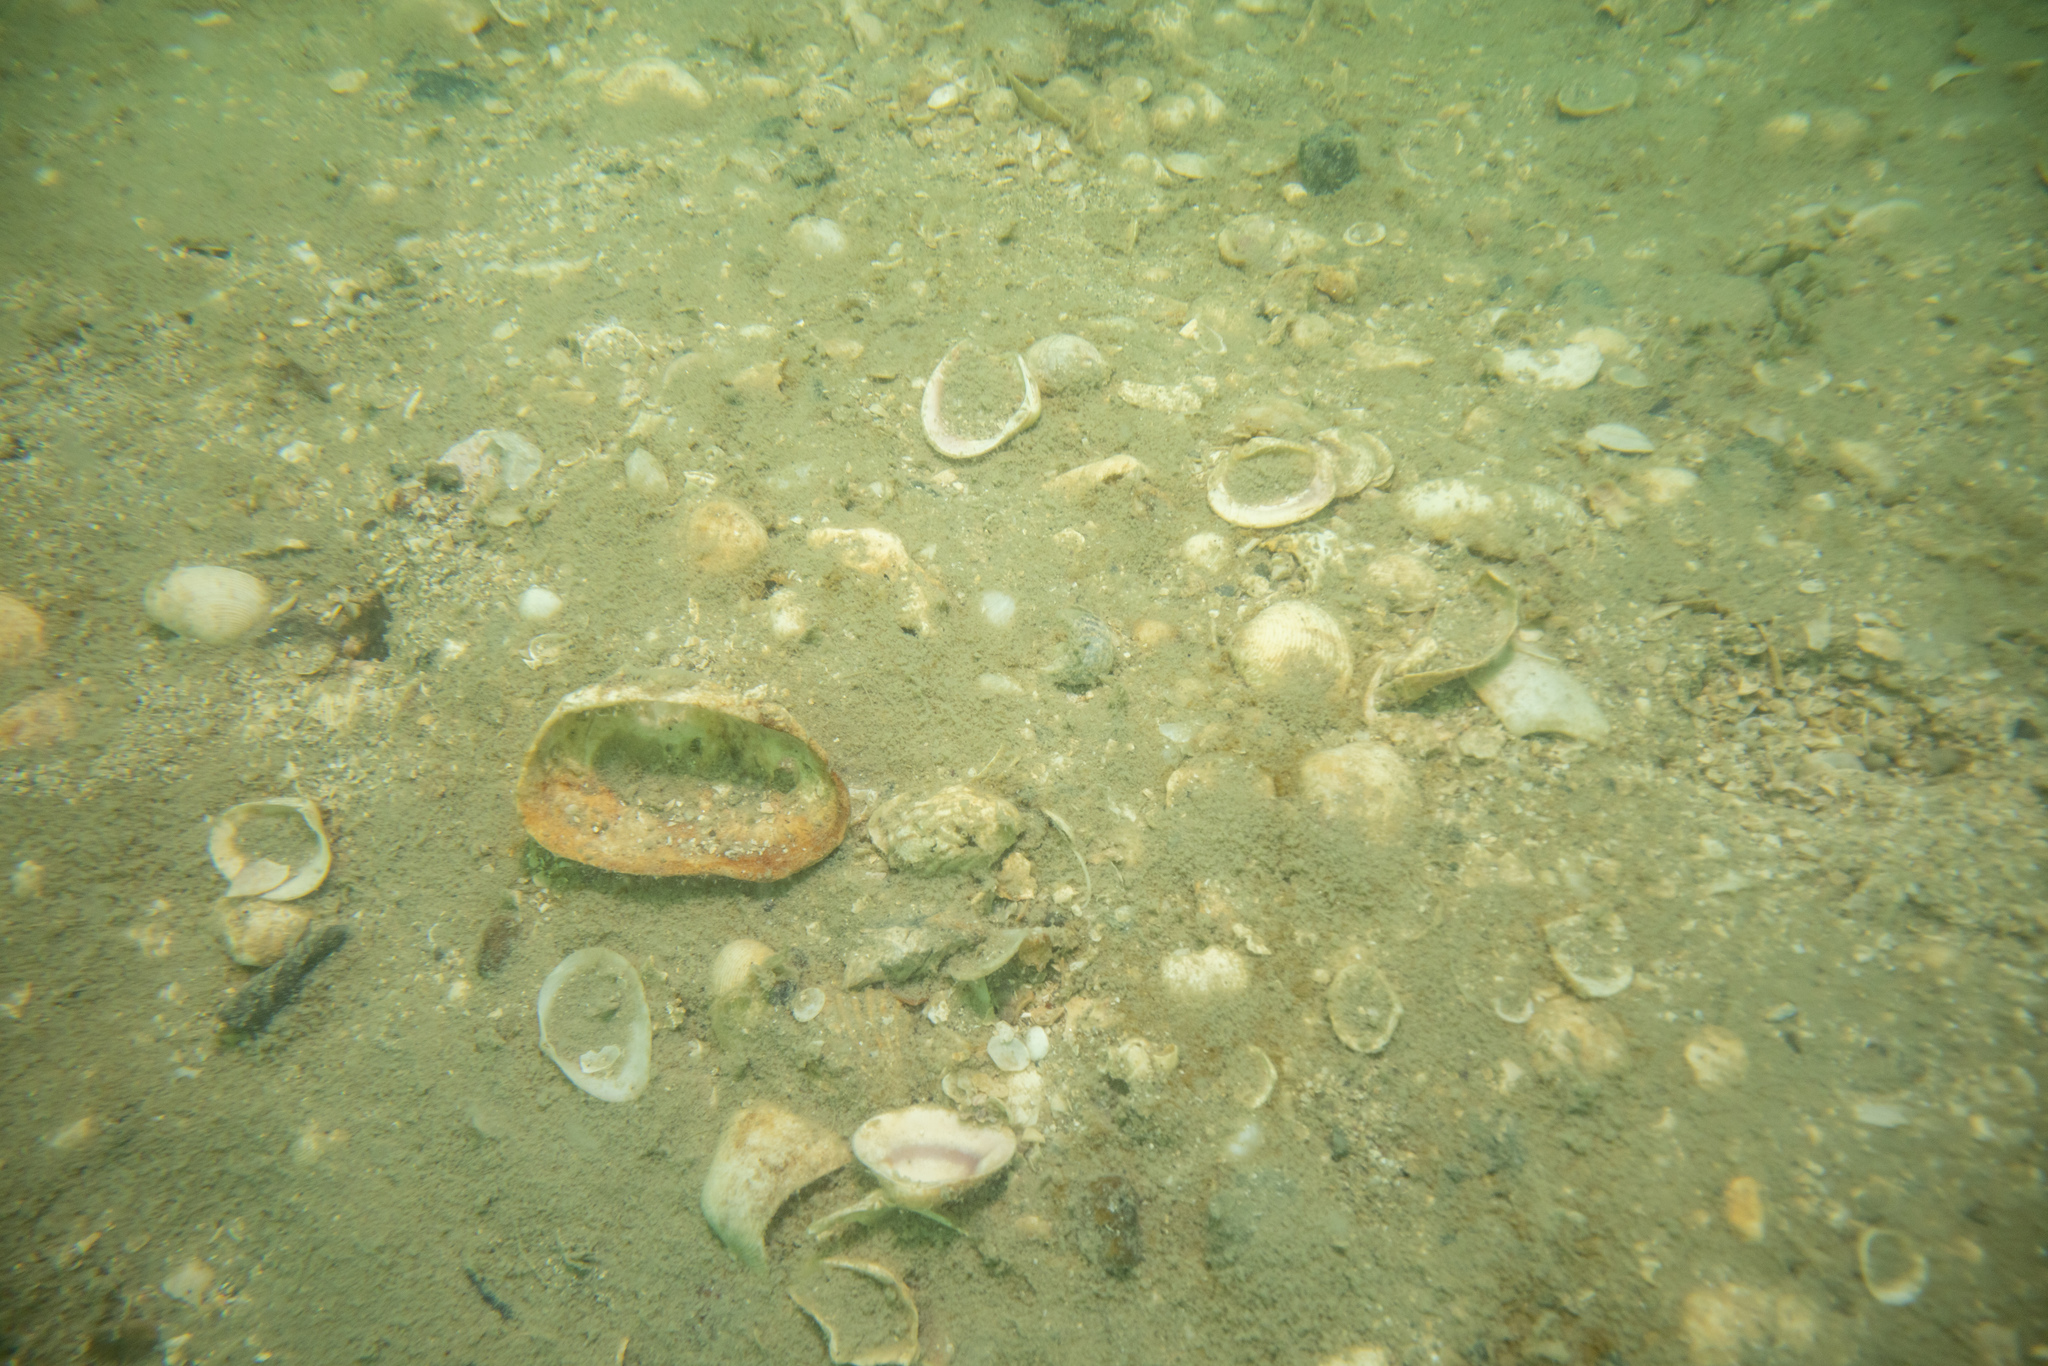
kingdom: Animalia
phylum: Mollusca
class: Bivalvia
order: Venerida
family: Veneridae
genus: Tawera
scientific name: Tawera spissa
